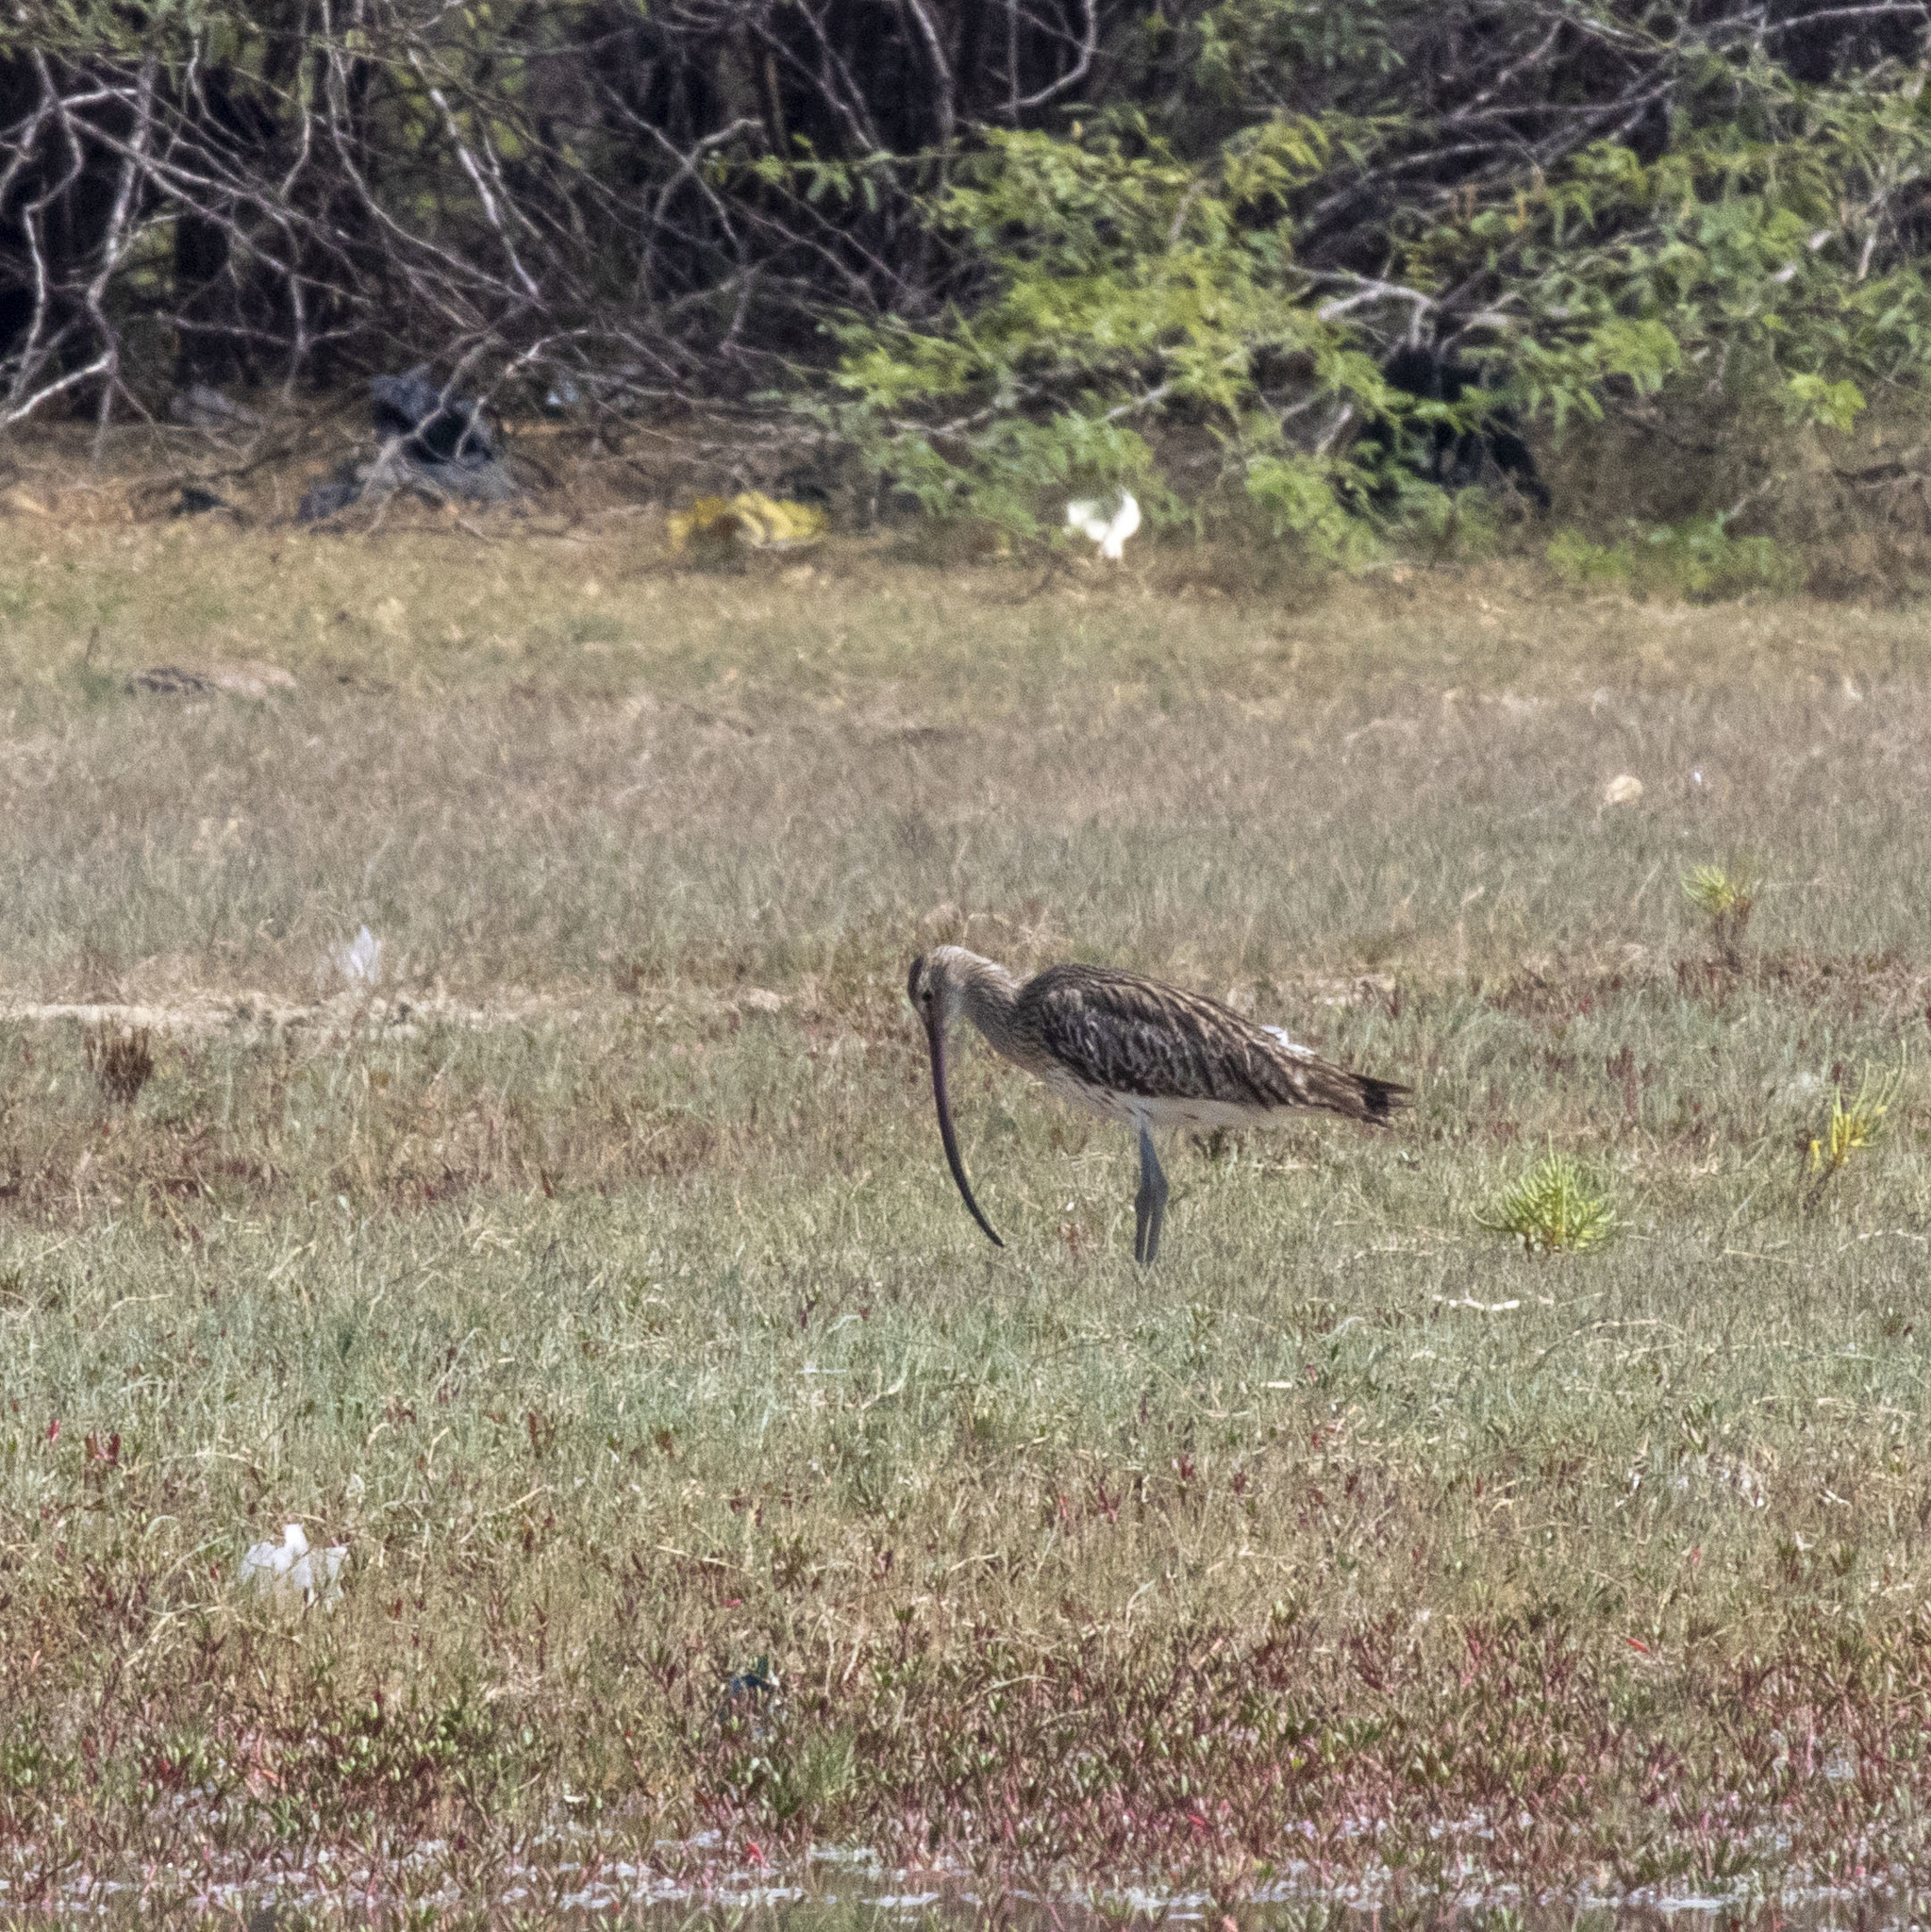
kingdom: Animalia
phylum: Chordata
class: Aves
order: Charadriiformes
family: Scolopacidae
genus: Numenius
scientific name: Numenius arquata
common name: Eurasian curlew
